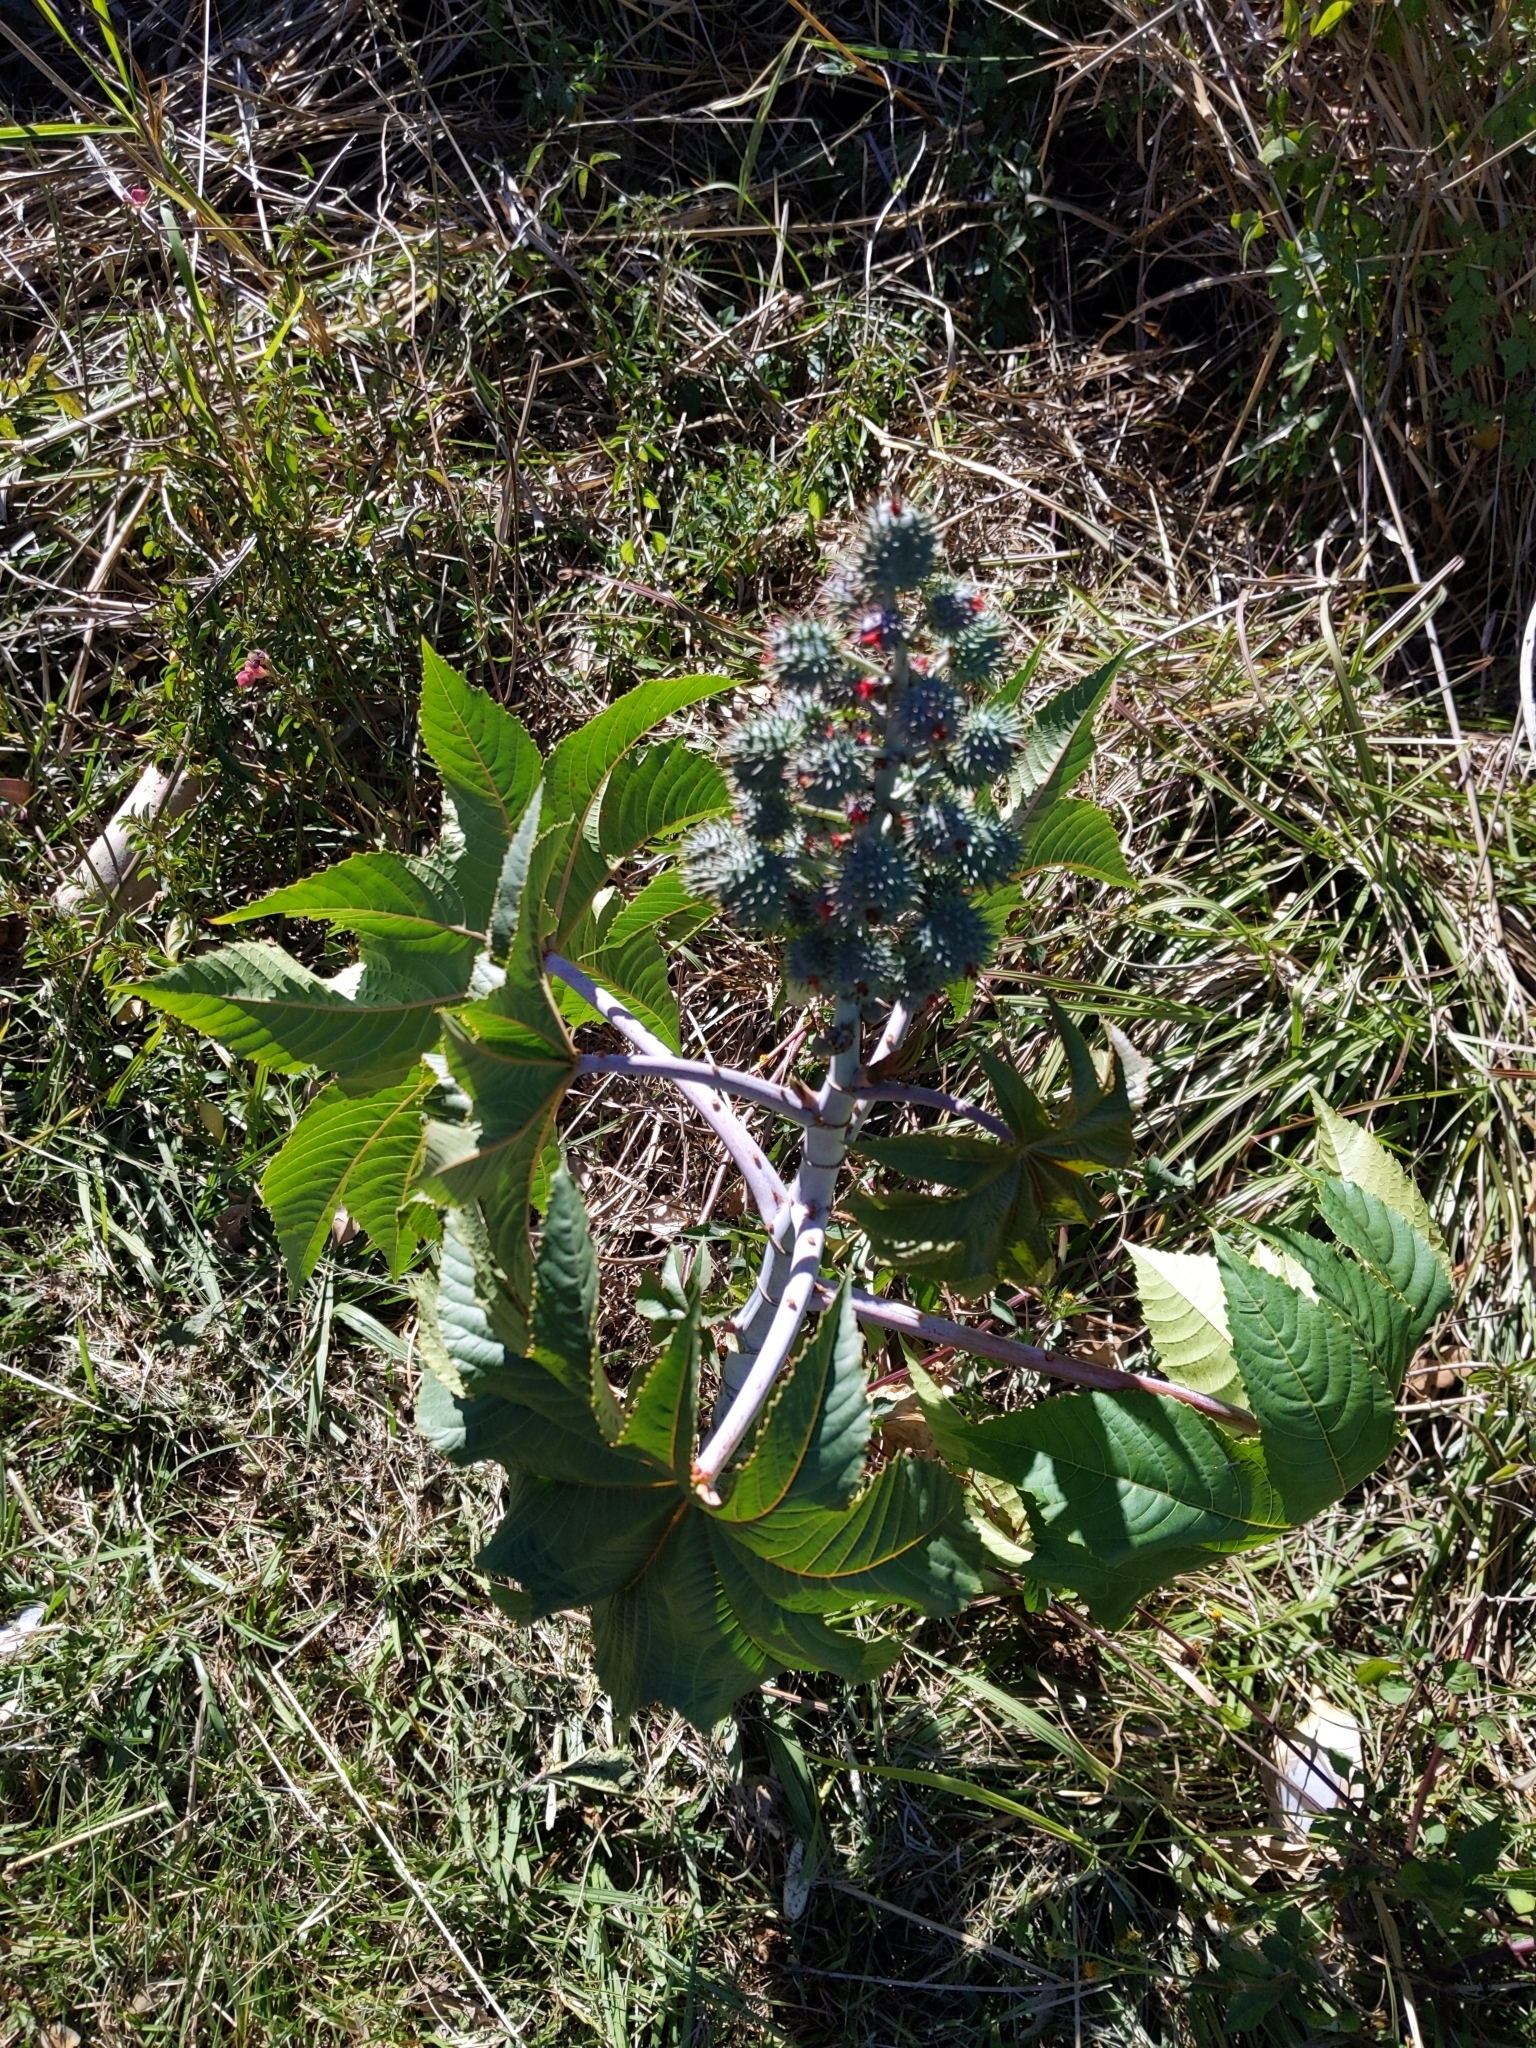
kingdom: Plantae
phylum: Tracheophyta
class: Magnoliopsida
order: Malpighiales
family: Euphorbiaceae
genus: Ricinus
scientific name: Ricinus communis
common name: Castor-oil-plant
